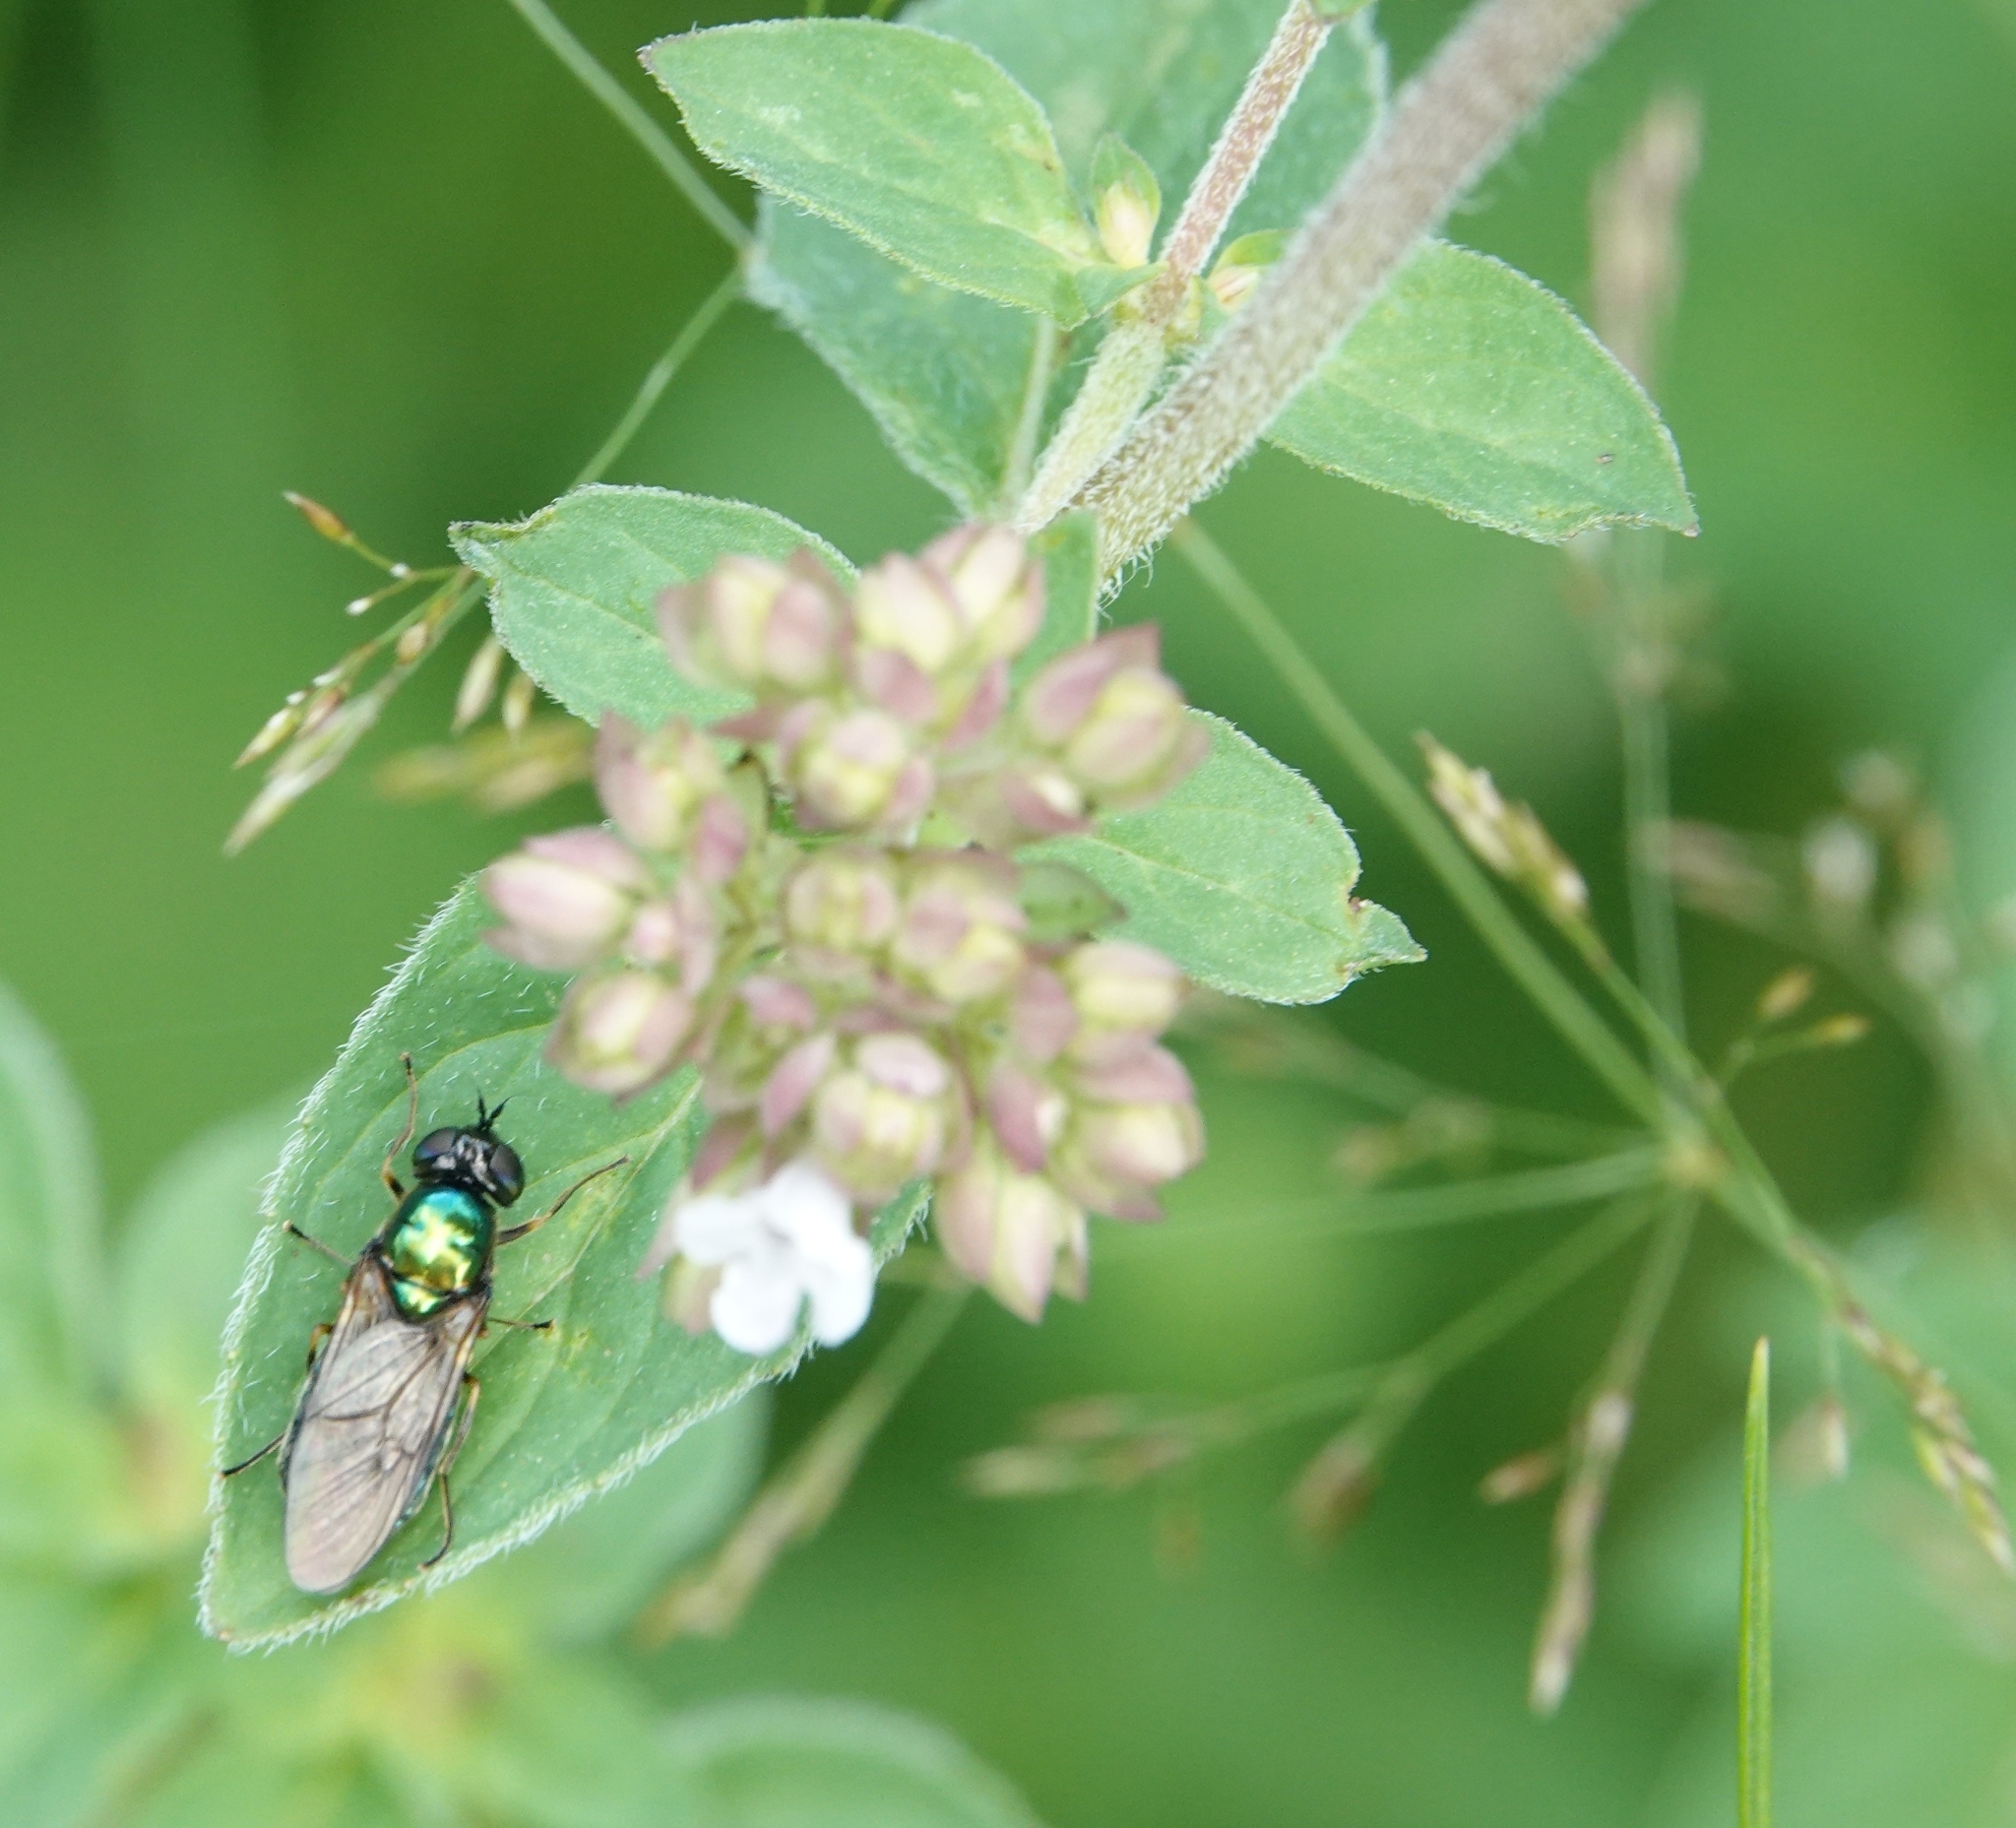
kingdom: Animalia
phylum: Arthropoda
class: Insecta
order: Diptera
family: Stratiomyidae
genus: Chloromyia
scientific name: Chloromyia formosa
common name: Soldier fly
